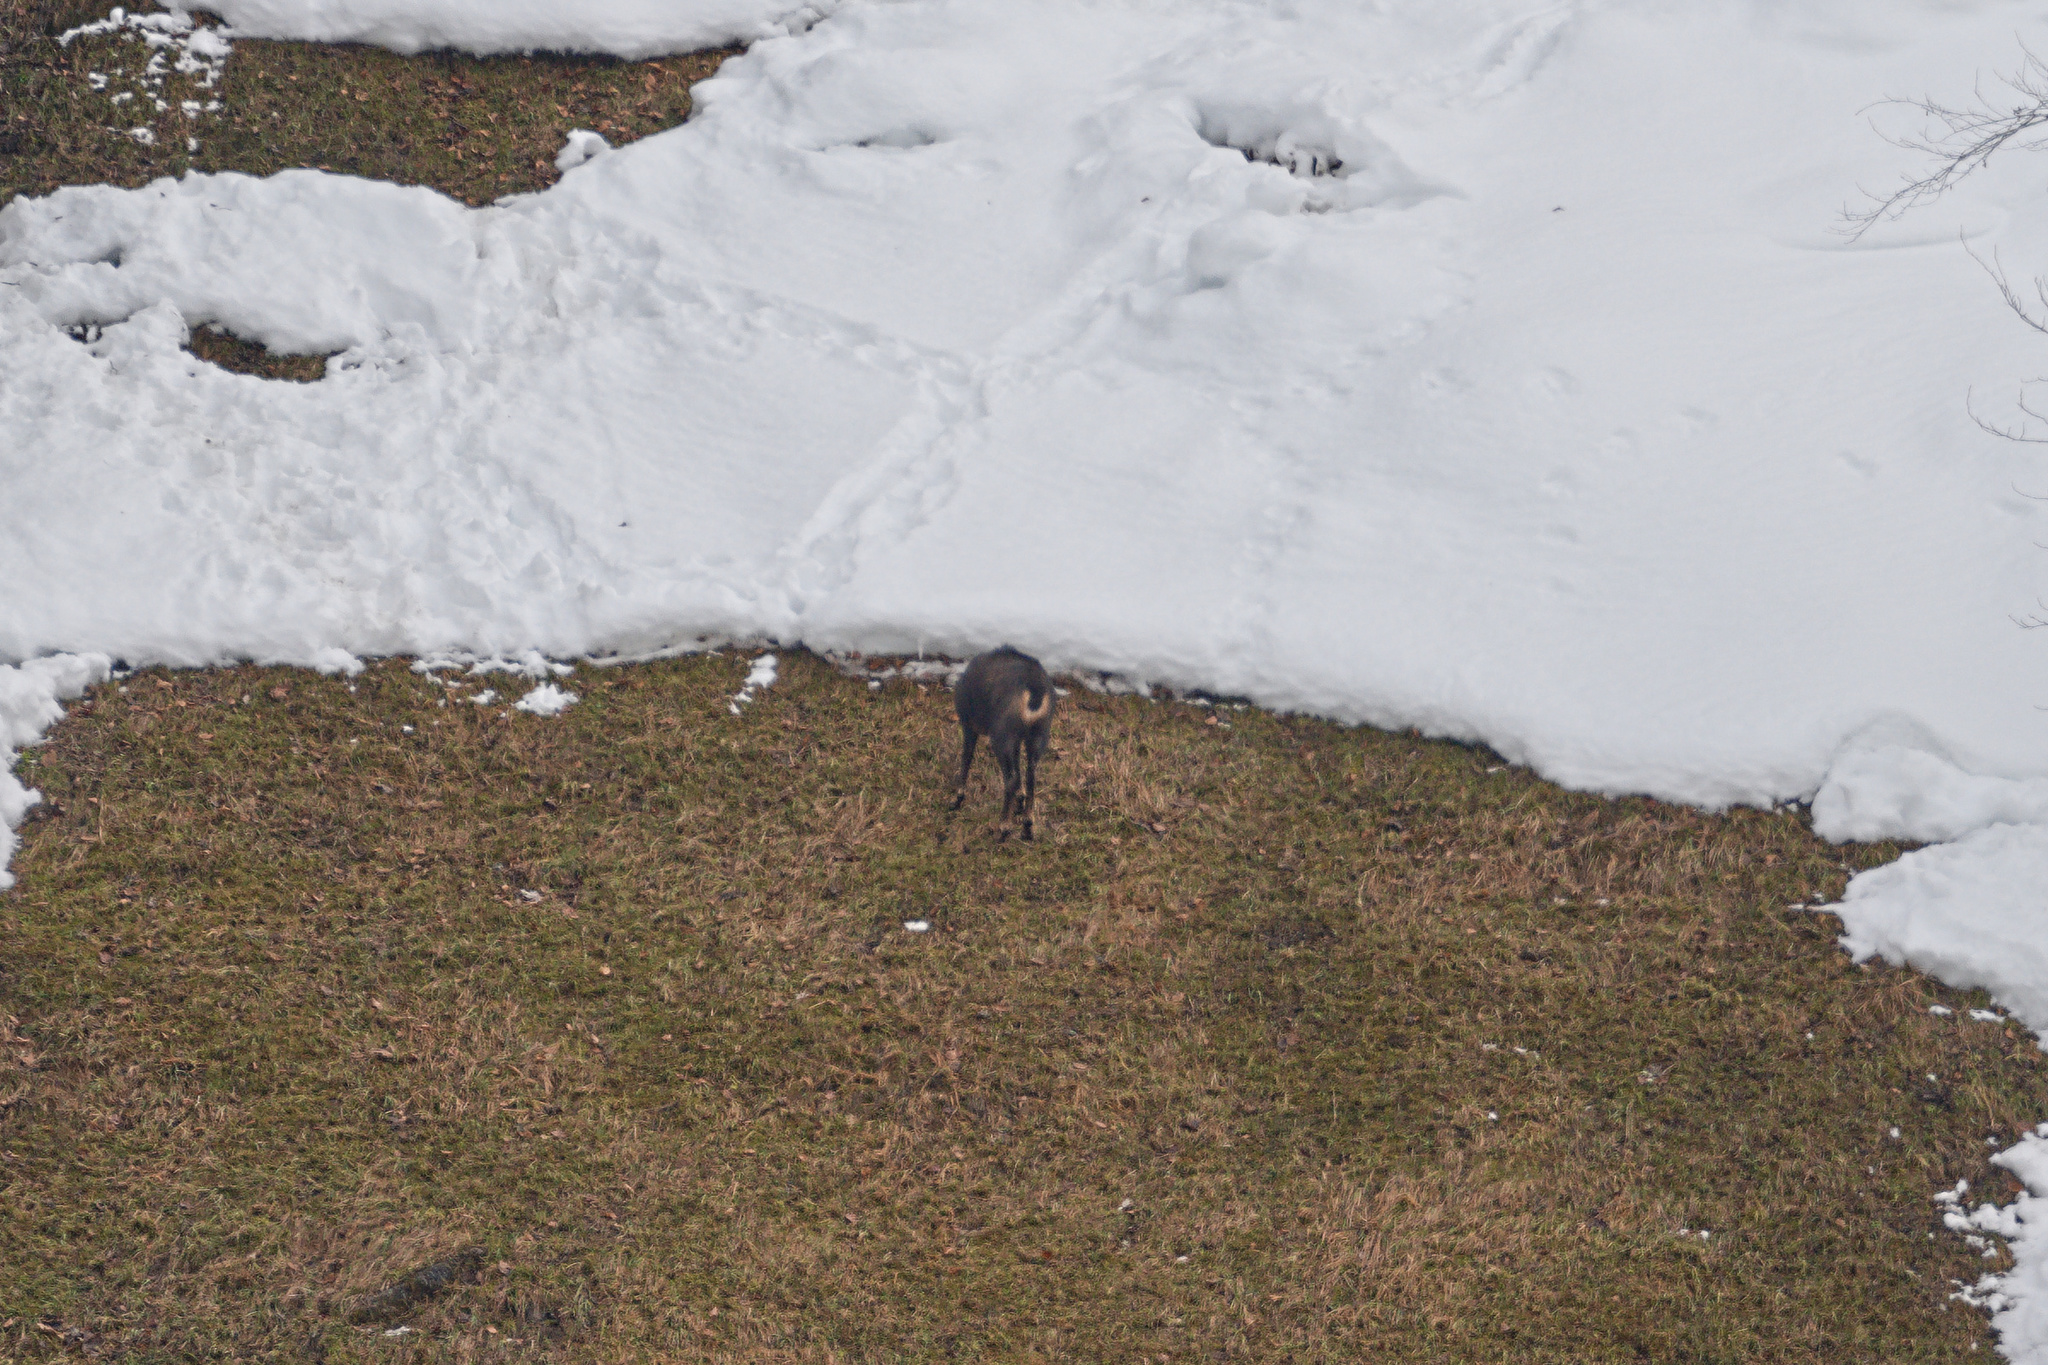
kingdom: Animalia
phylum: Chordata
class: Mammalia
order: Artiodactyla
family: Bovidae
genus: Rupicapra
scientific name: Rupicapra rupicapra
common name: Chamois
